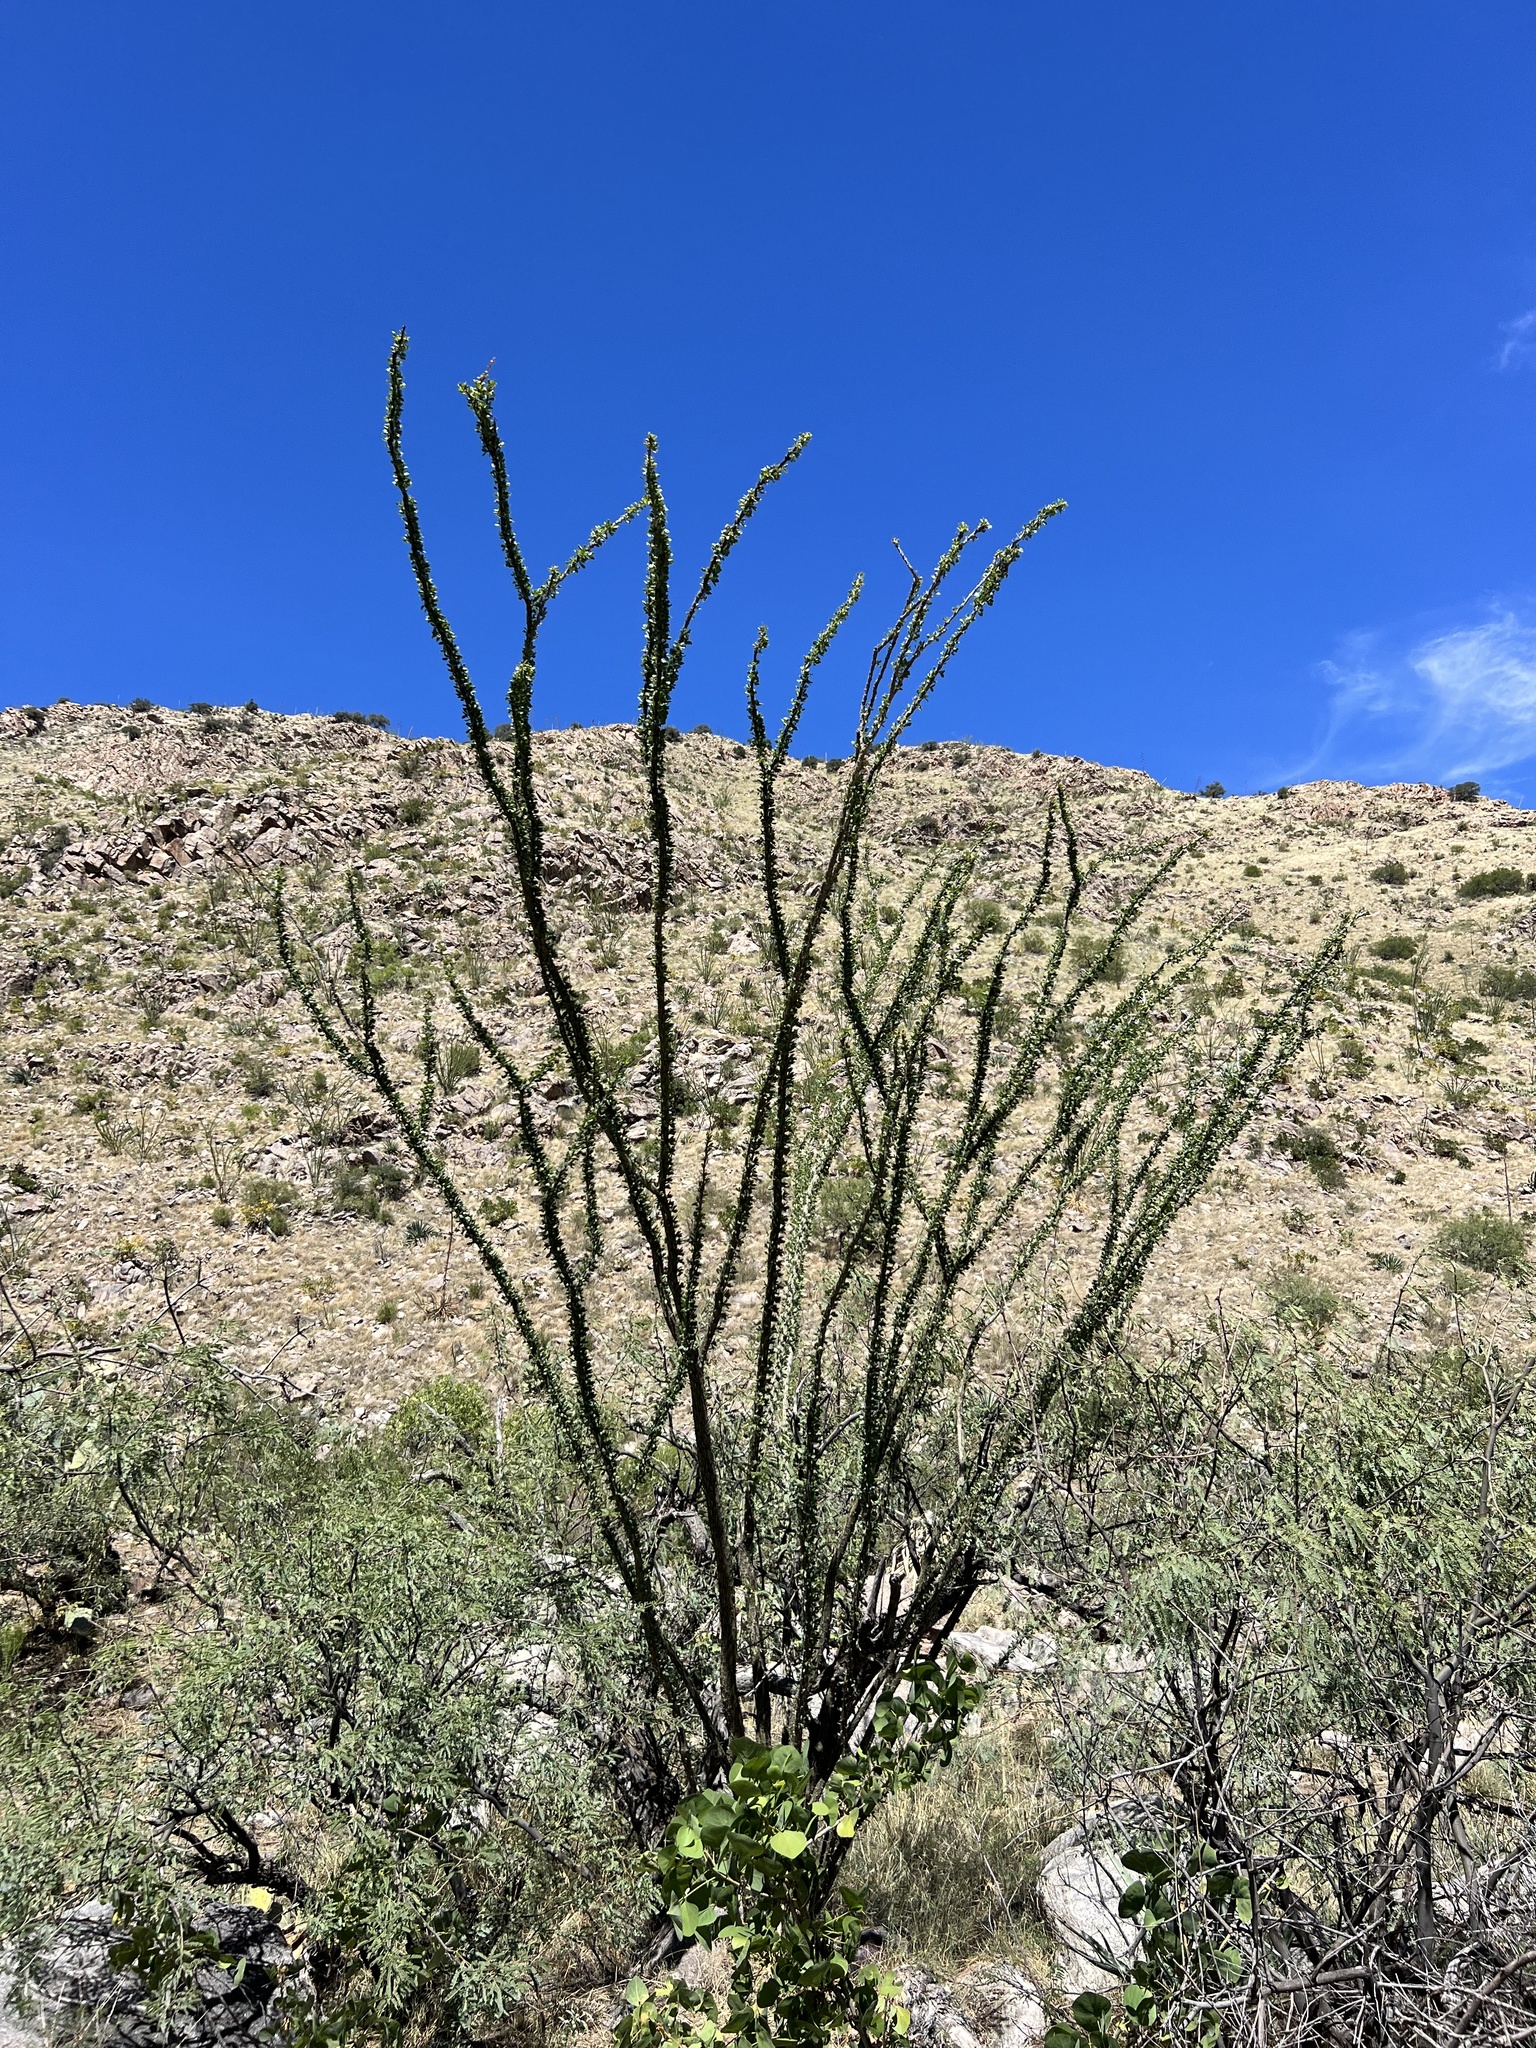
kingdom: Plantae
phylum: Tracheophyta
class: Magnoliopsida
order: Ericales
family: Fouquieriaceae
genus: Fouquieria
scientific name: Fouquieria splendens
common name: Vine-cactus
